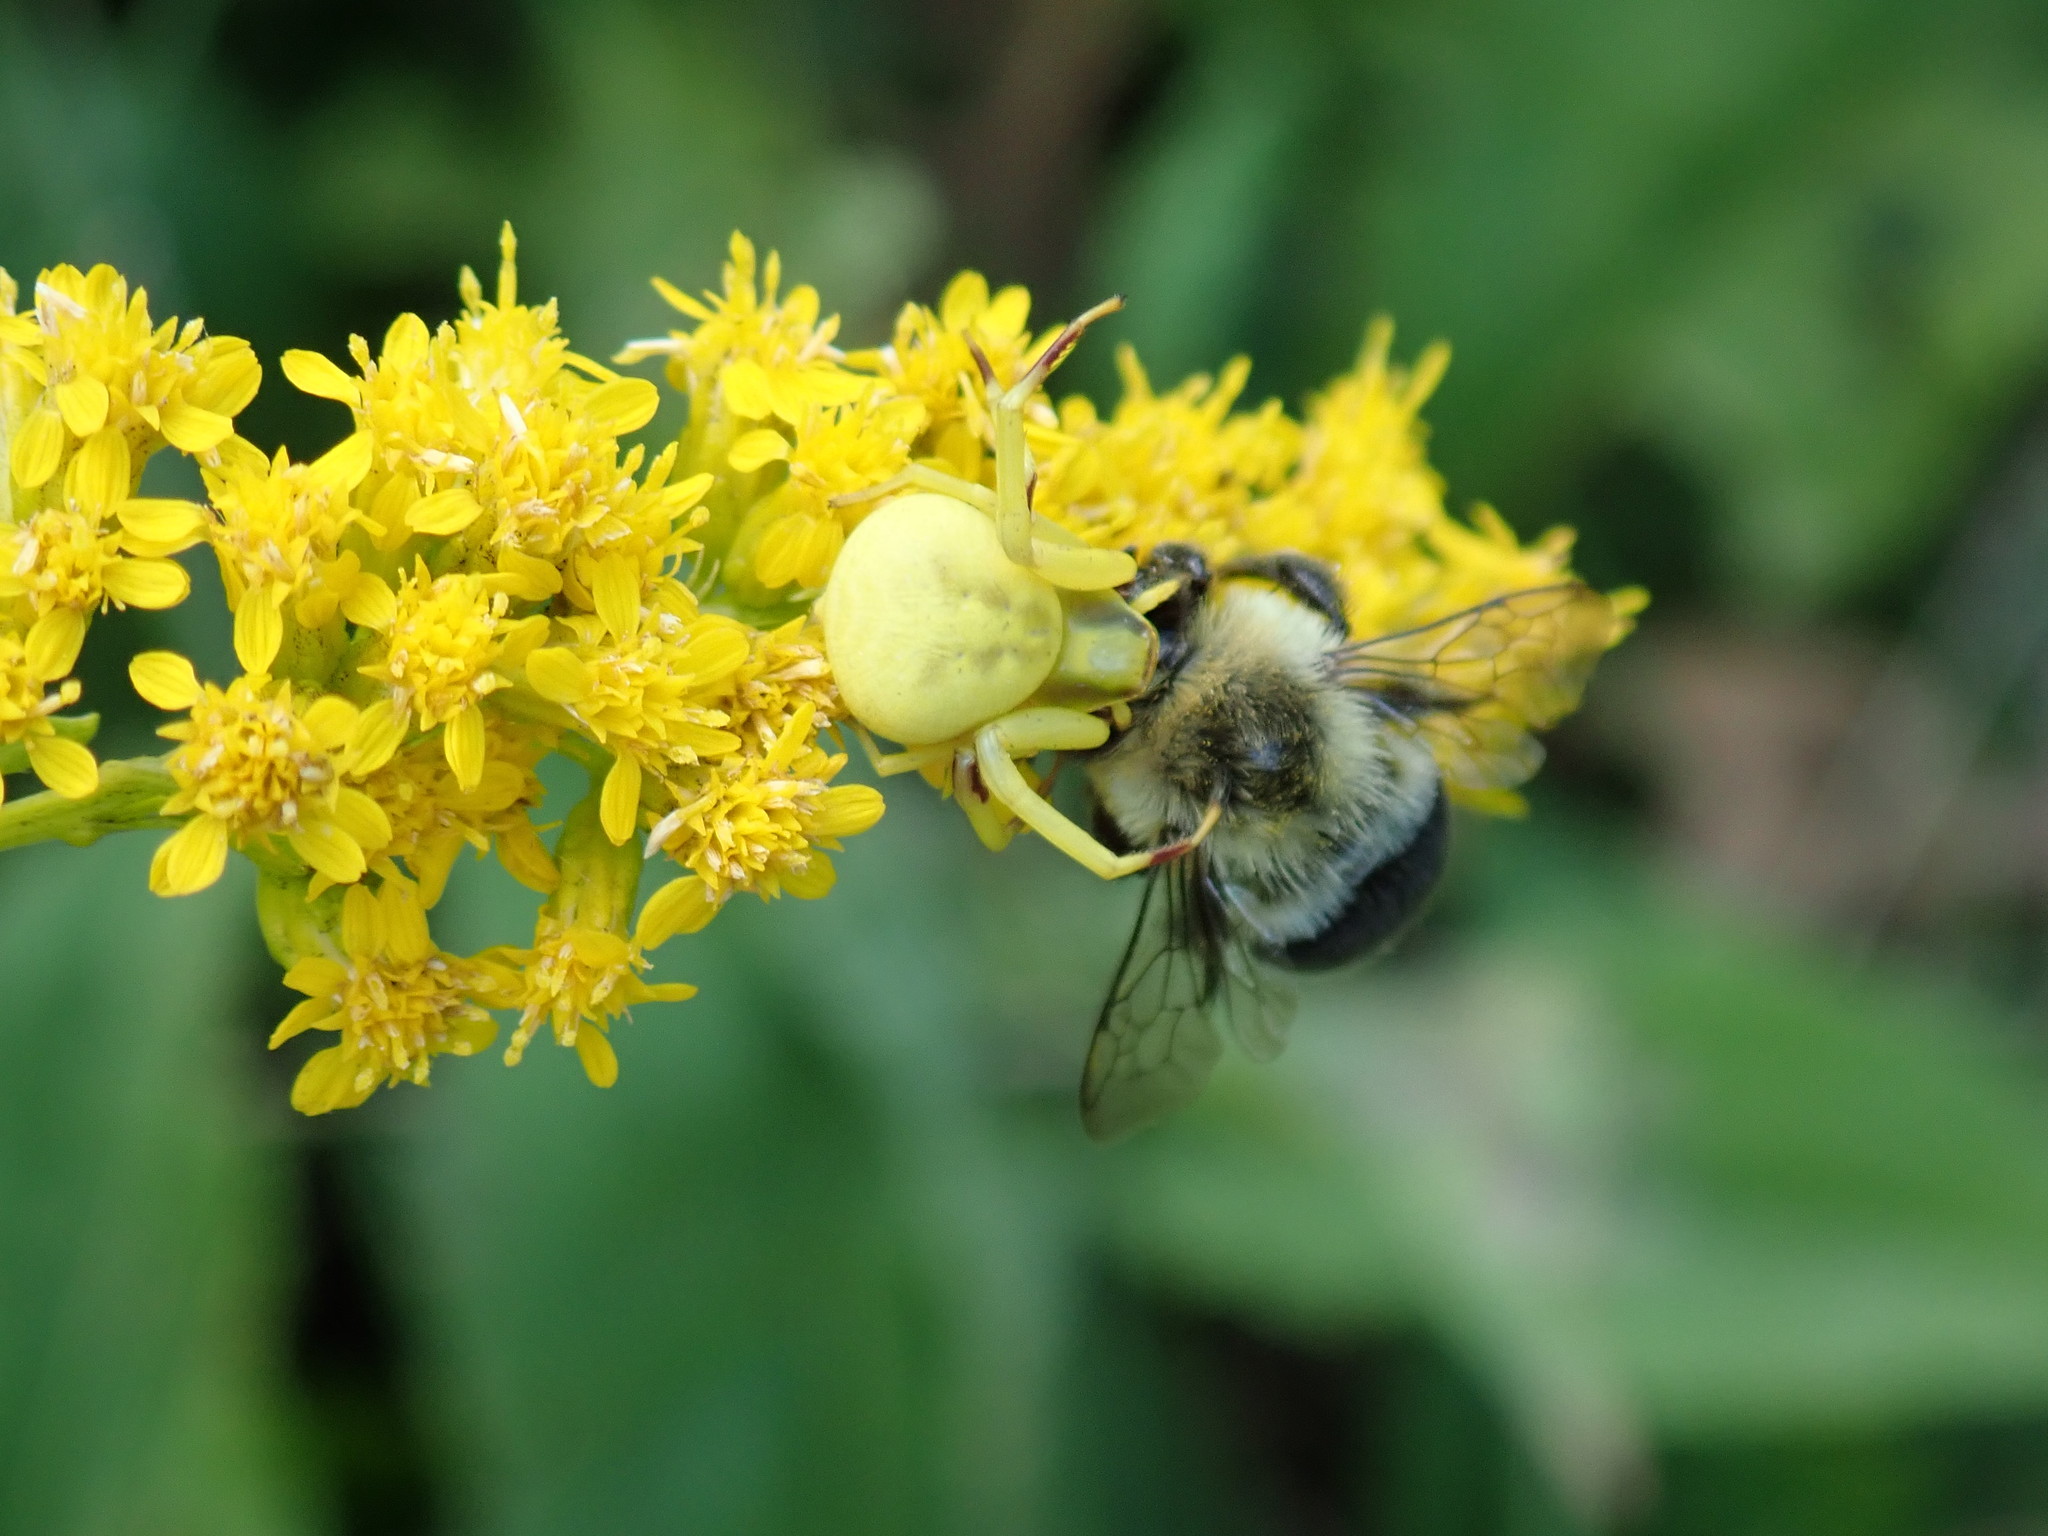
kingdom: Animalia
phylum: Arthropoda
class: Arachnida
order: Araneae
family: Thomisidae
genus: Misumenoides
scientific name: Misumenoides formosipes
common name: White-banded crab spider
